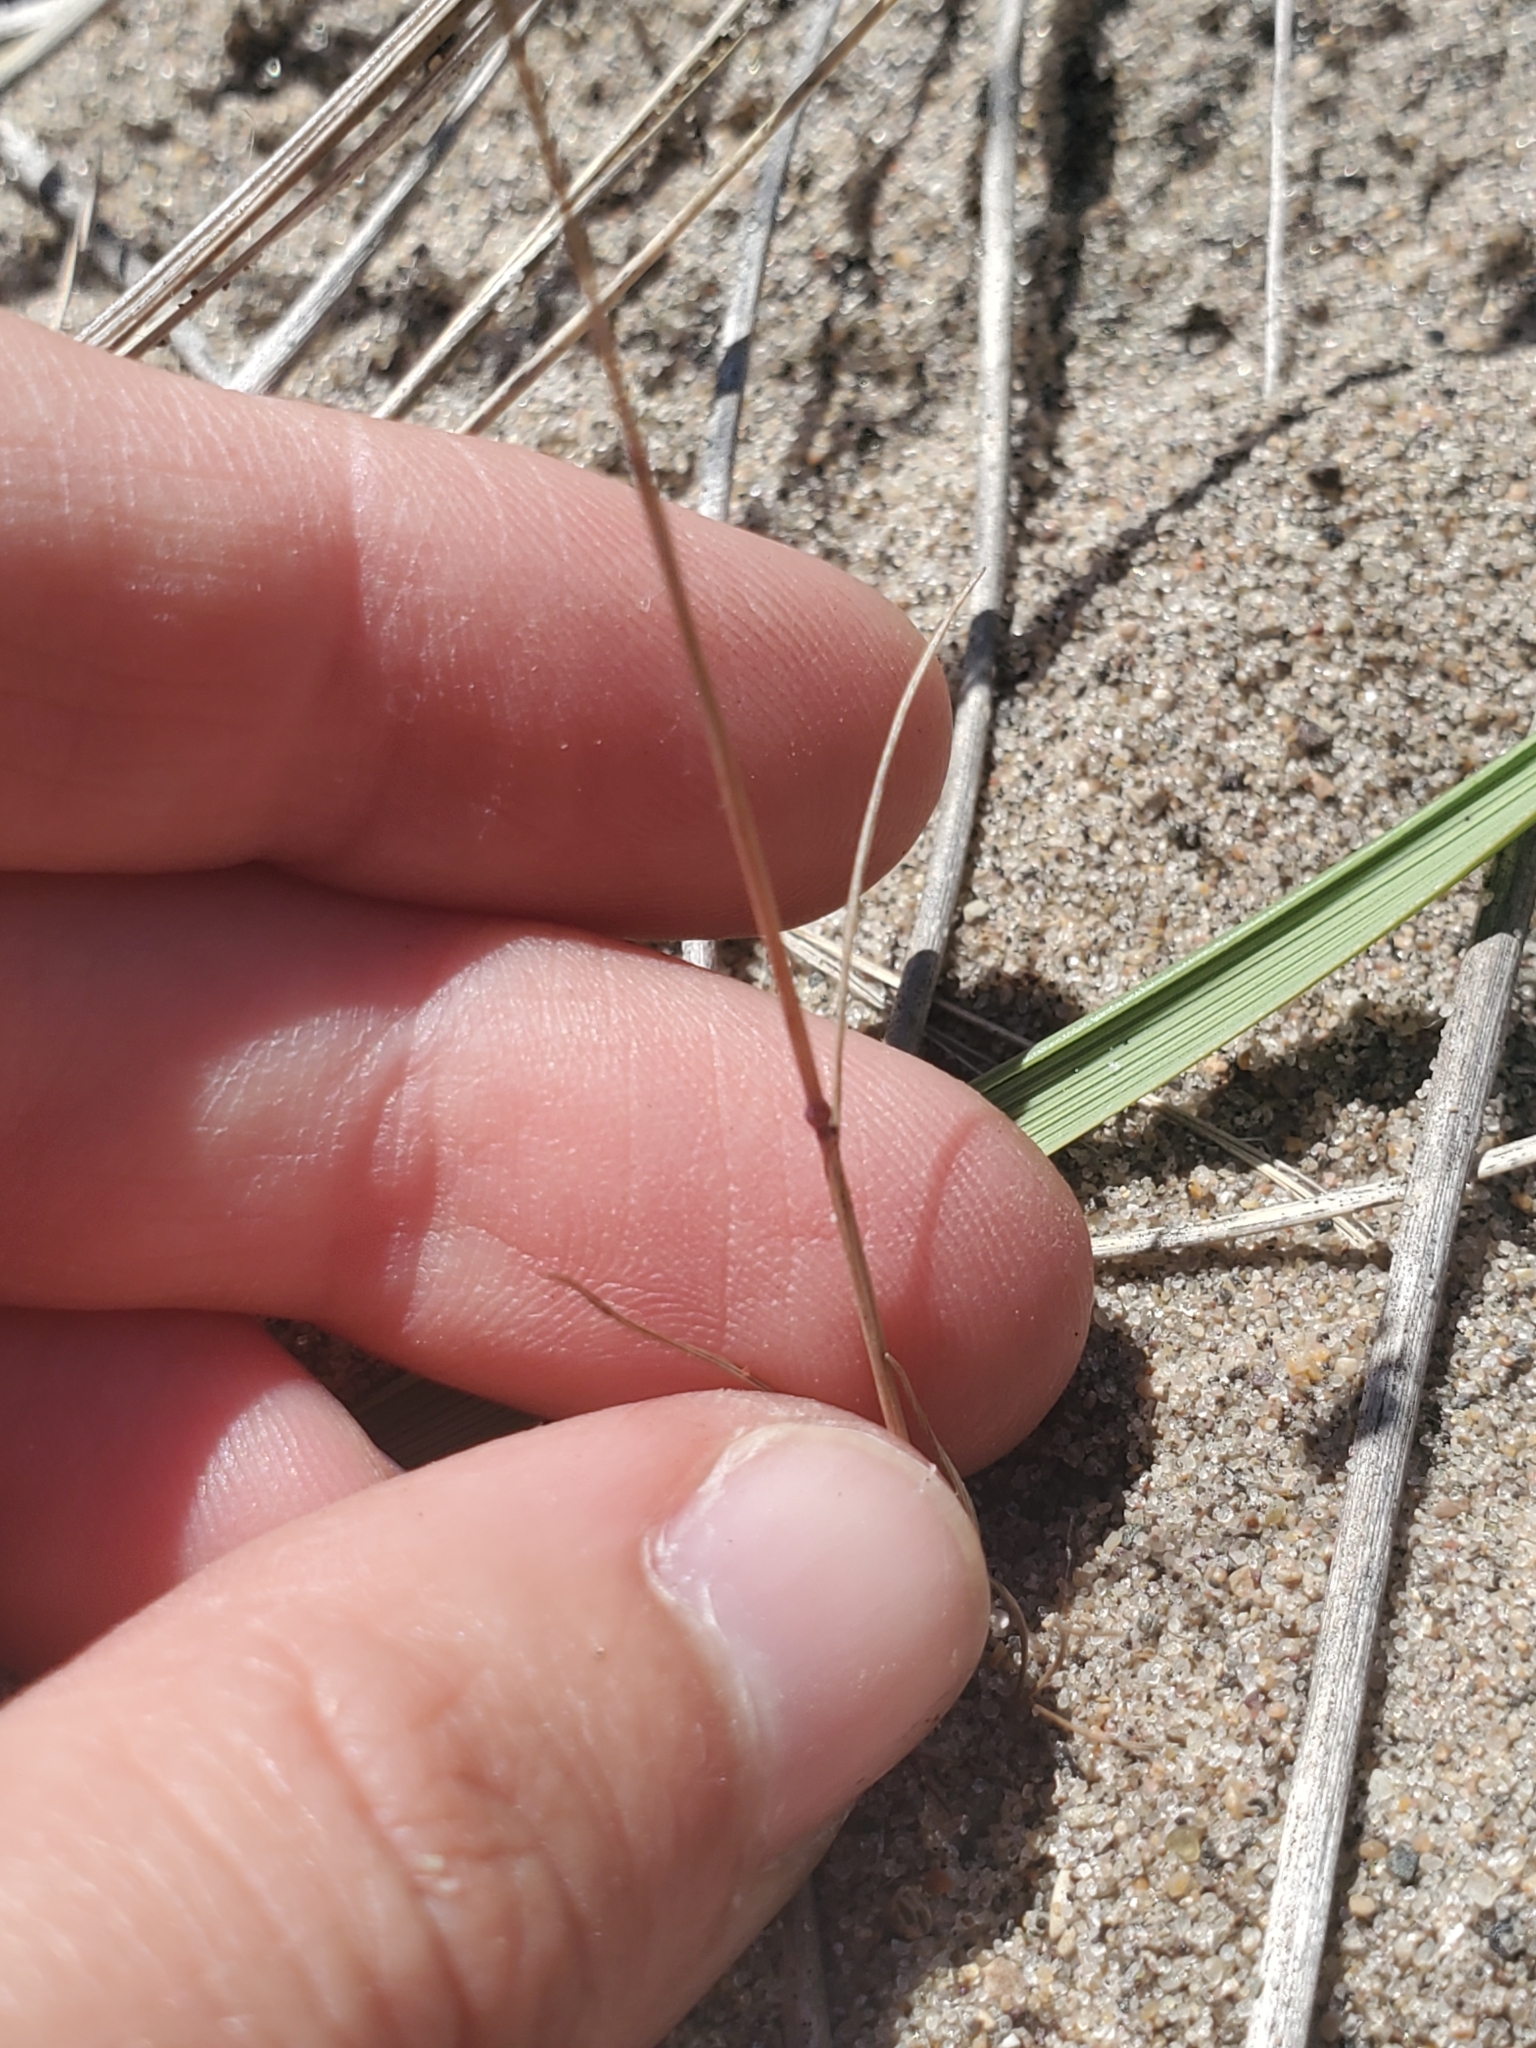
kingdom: Plantae
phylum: Tracheophyta
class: Liliopsida
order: Poales
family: Poaceae
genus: Festuca
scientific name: Festuca octoflora
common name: Sixweeks grass
